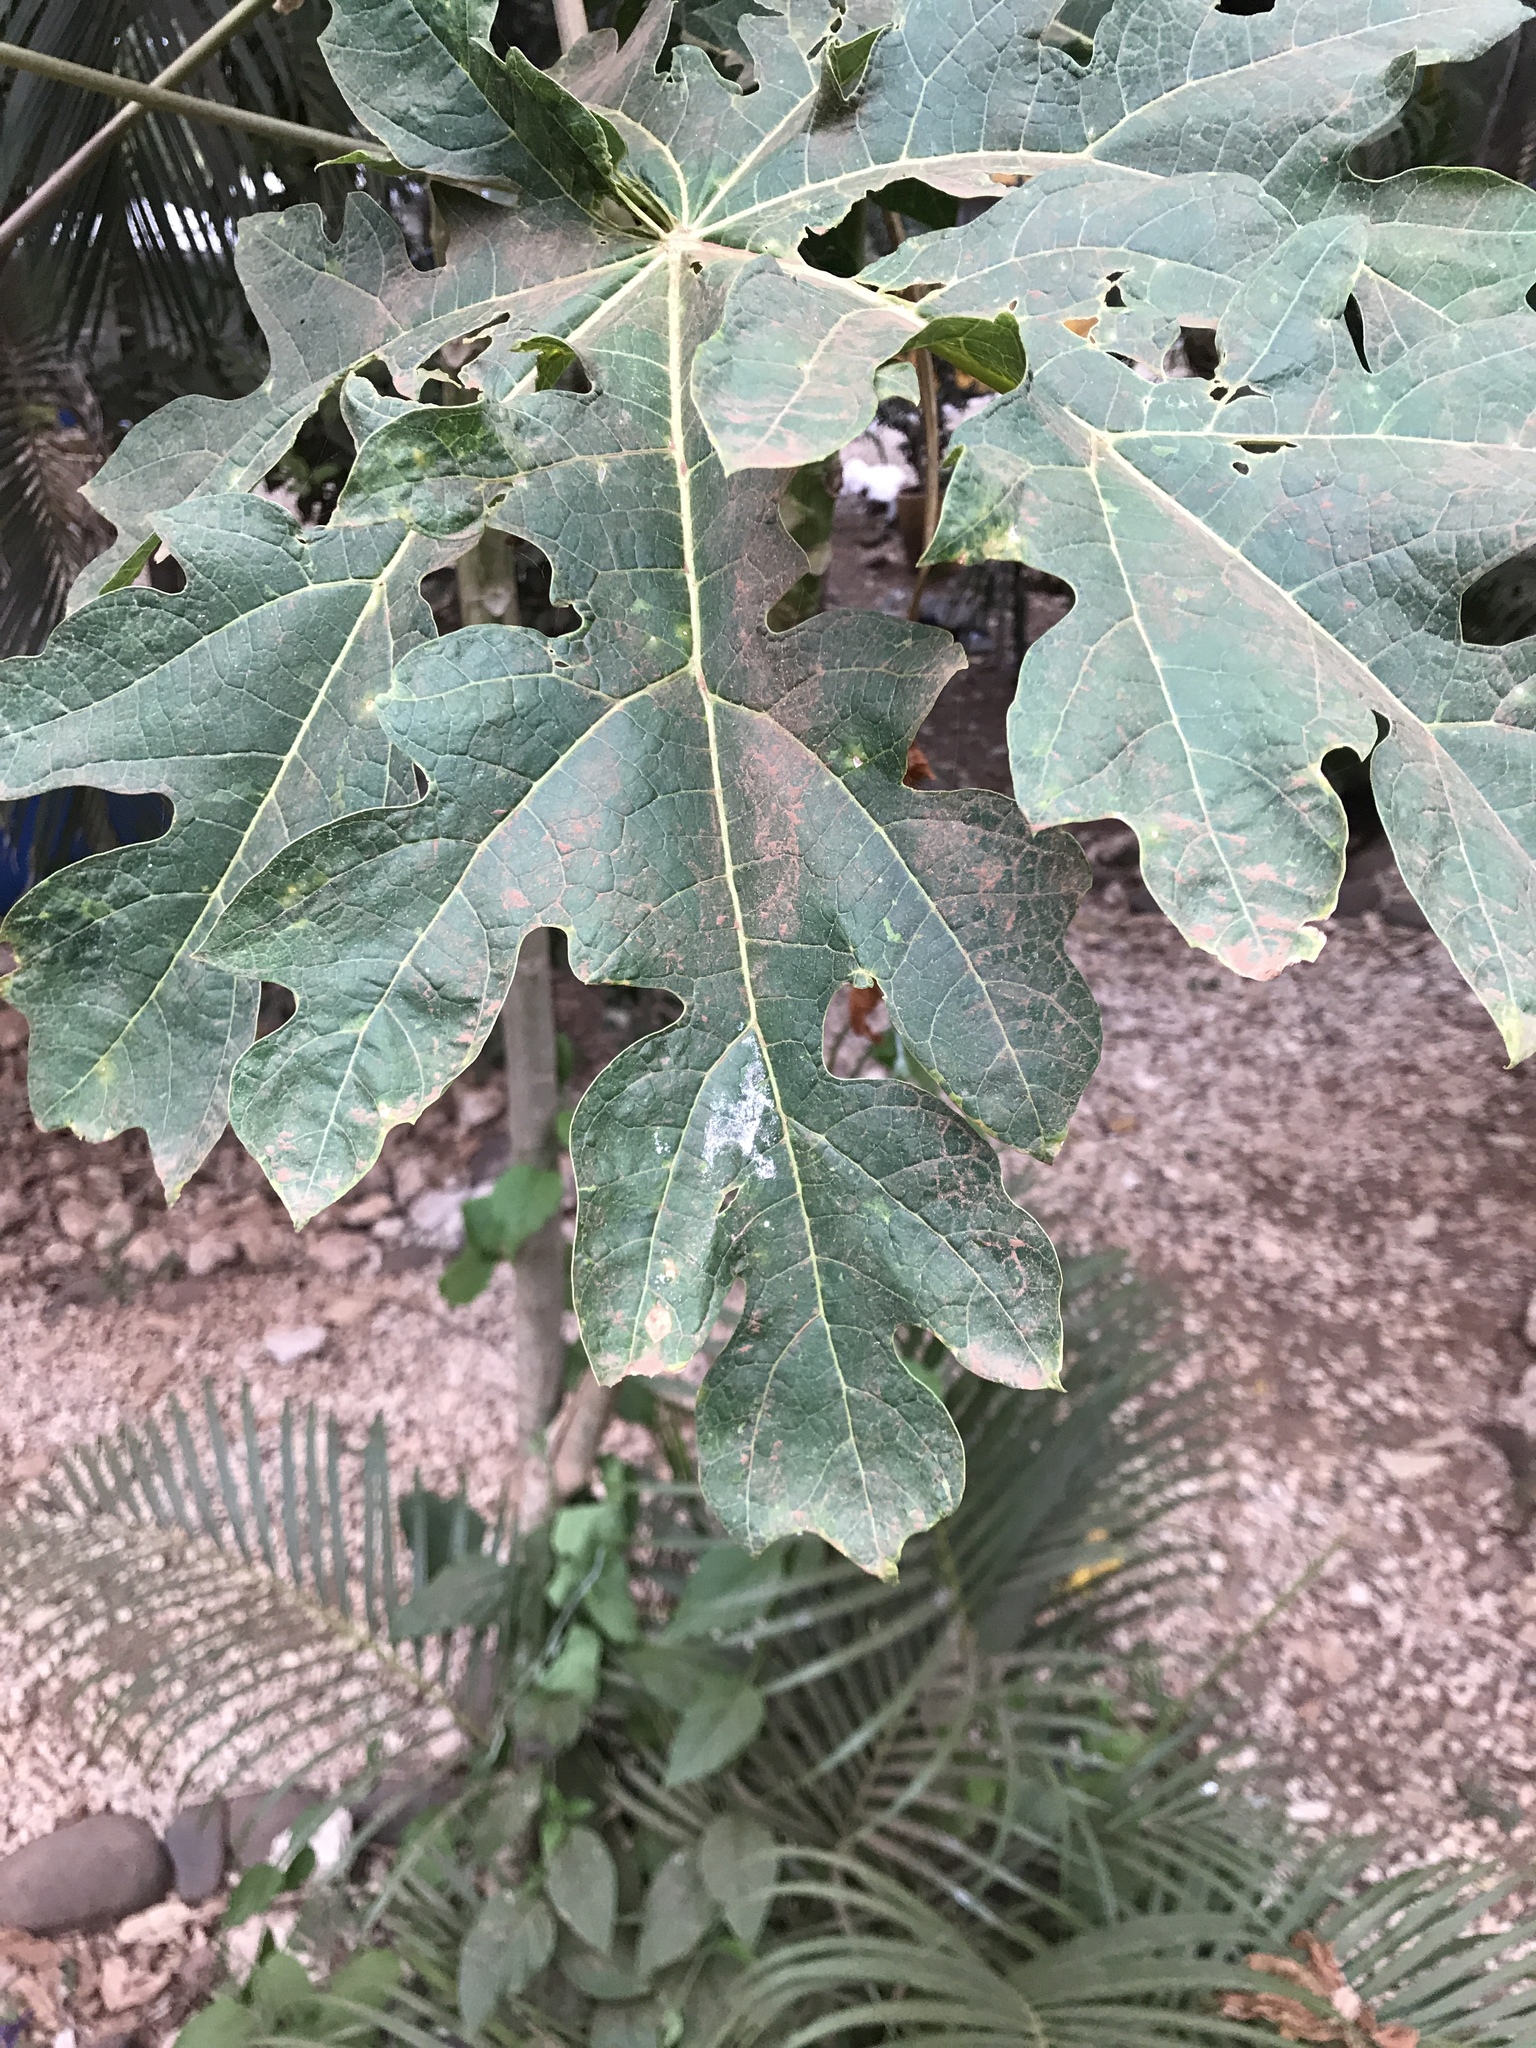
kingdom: Plantae
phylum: Tracheophyta
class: Magnoliopsida
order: Brassicales
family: Caricaceae
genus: Carica
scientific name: Carica papaya
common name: Papaya
